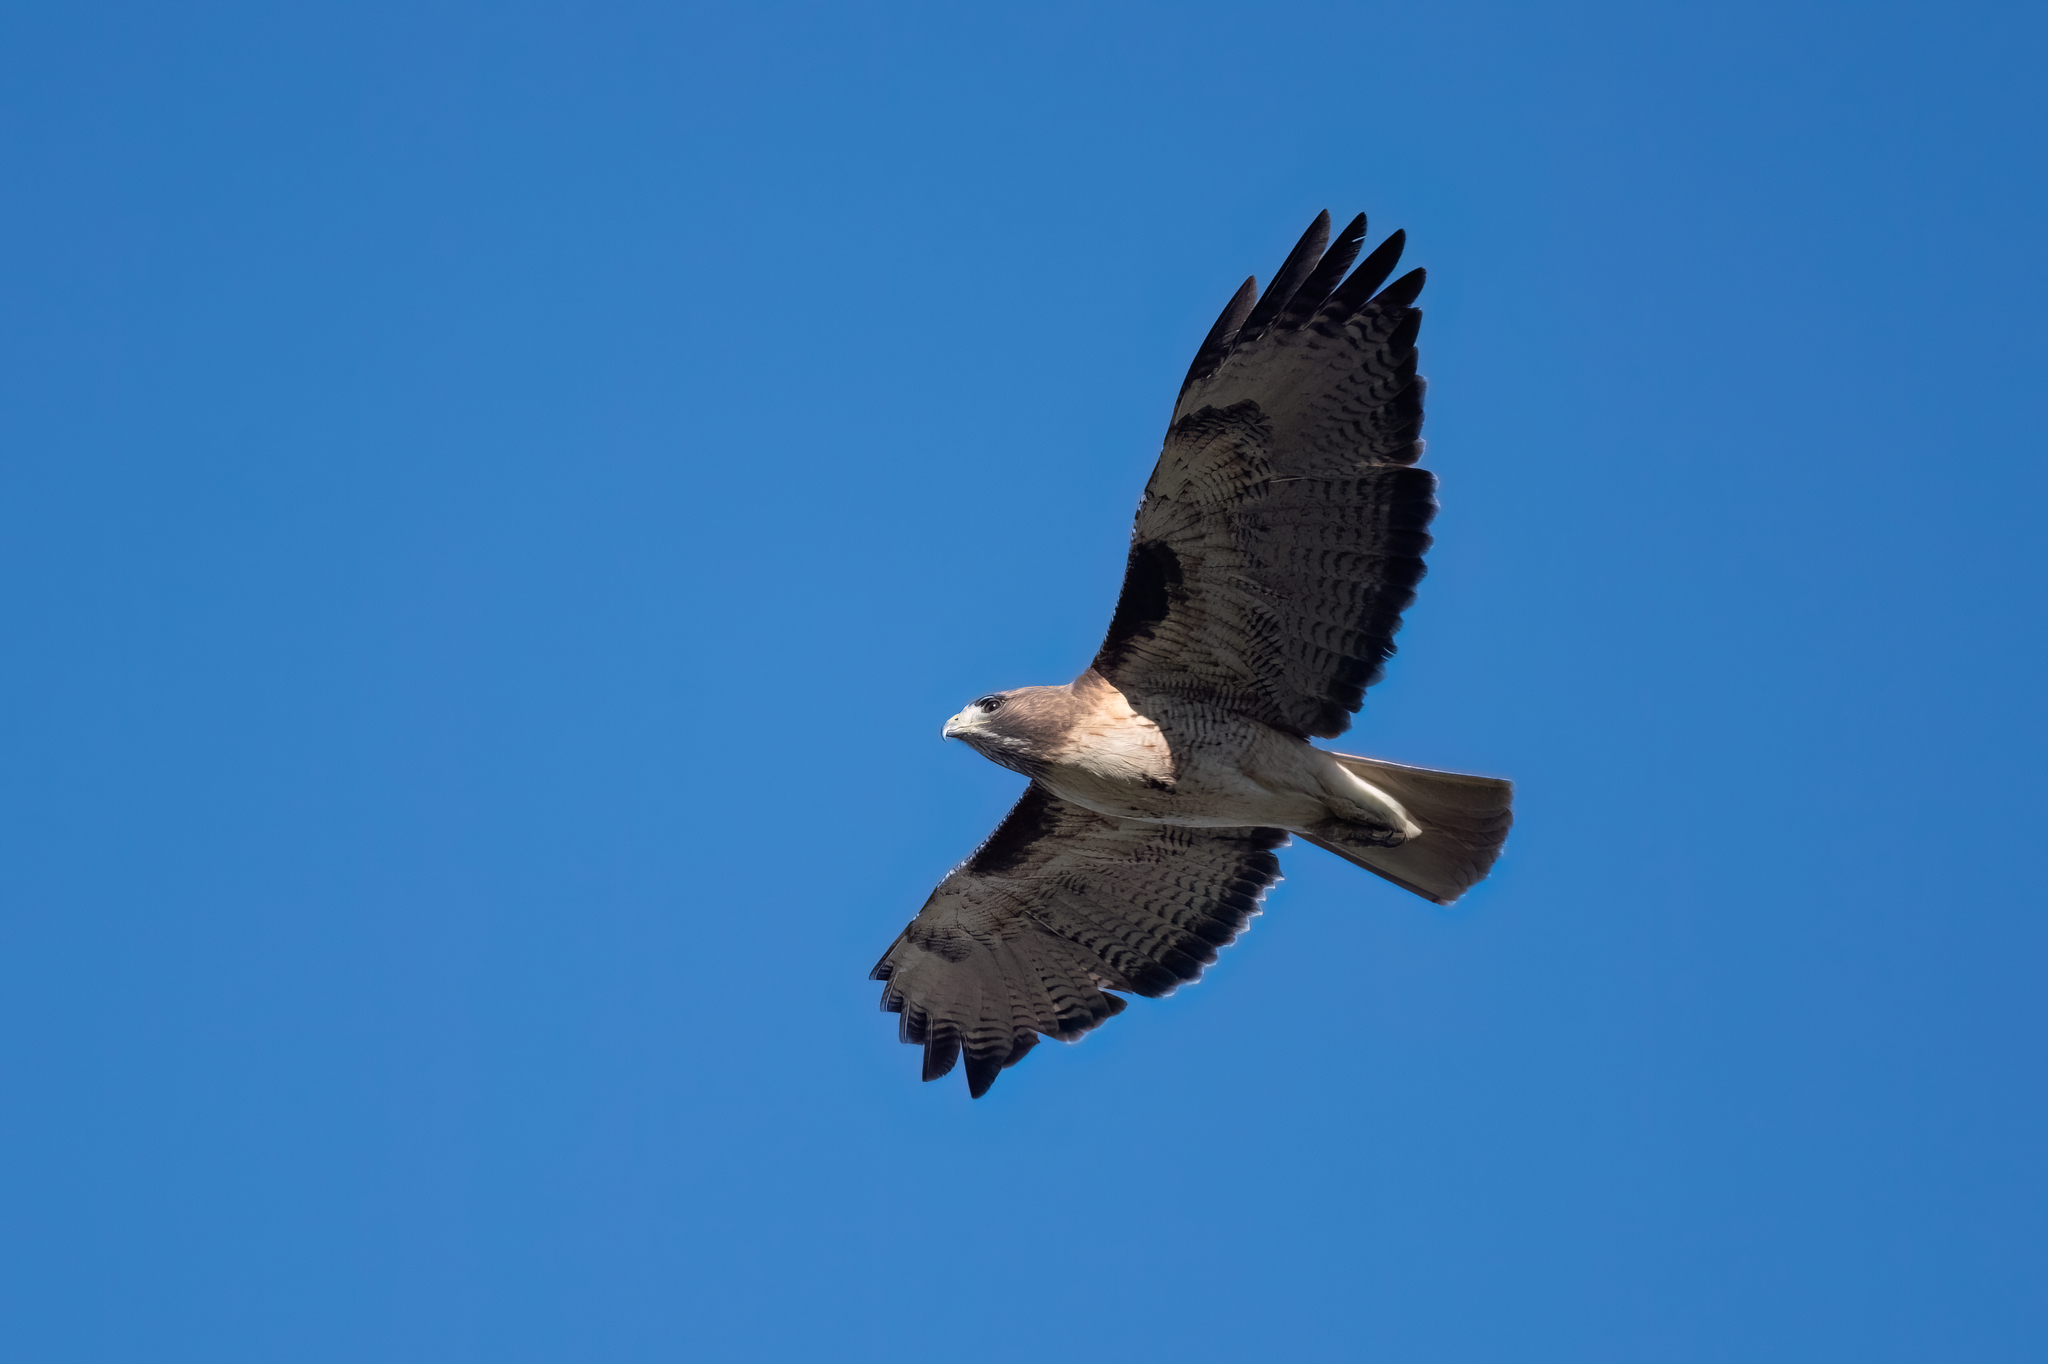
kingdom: Animalia
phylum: Chordata
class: Aves
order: Accipitriformes
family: Accipitridae
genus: Buteo
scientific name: Buteo jamaicensis
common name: Red-tailed hawk
